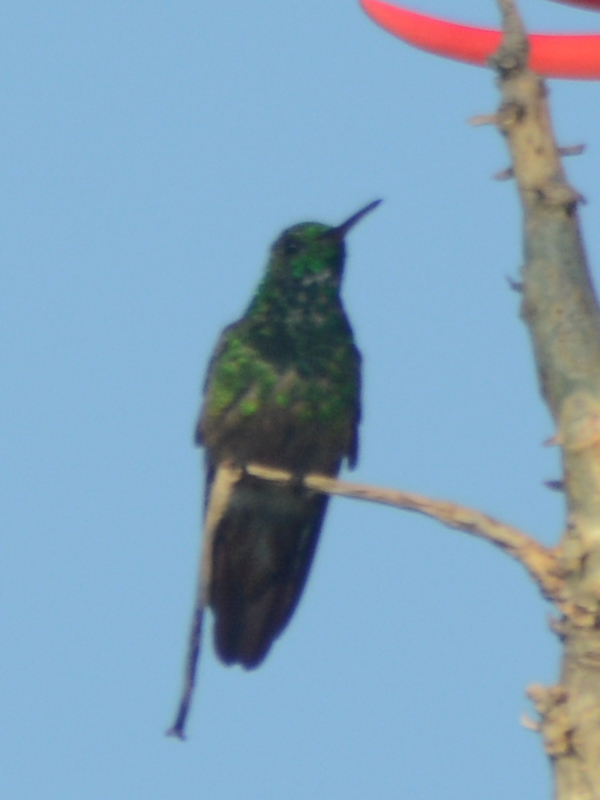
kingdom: Animalia
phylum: Chordata
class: Aves
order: Apodiformes
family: Trochilidae
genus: Saucerottia
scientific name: Saucerottia beryllina
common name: Berylline hummingbird
